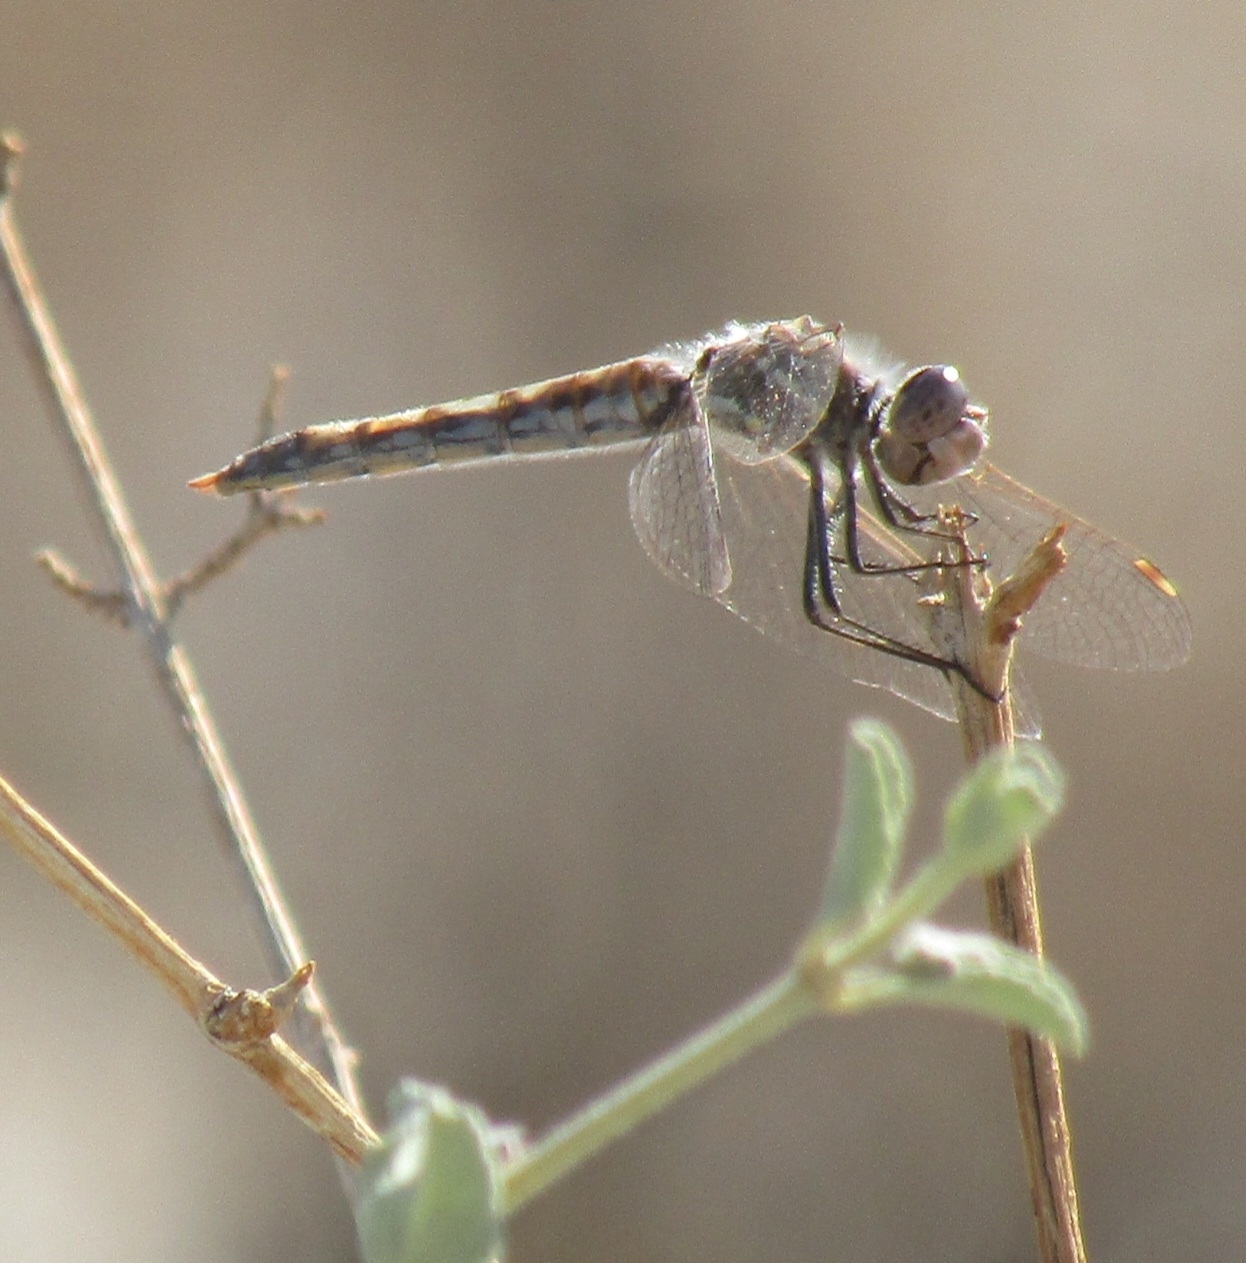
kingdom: Animalia
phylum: Arthropoda
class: Insecta
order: Odonata
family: Libellulidae
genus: Sympetrum
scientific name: Sympetrum corruptum
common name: Variegated meadowhawk
